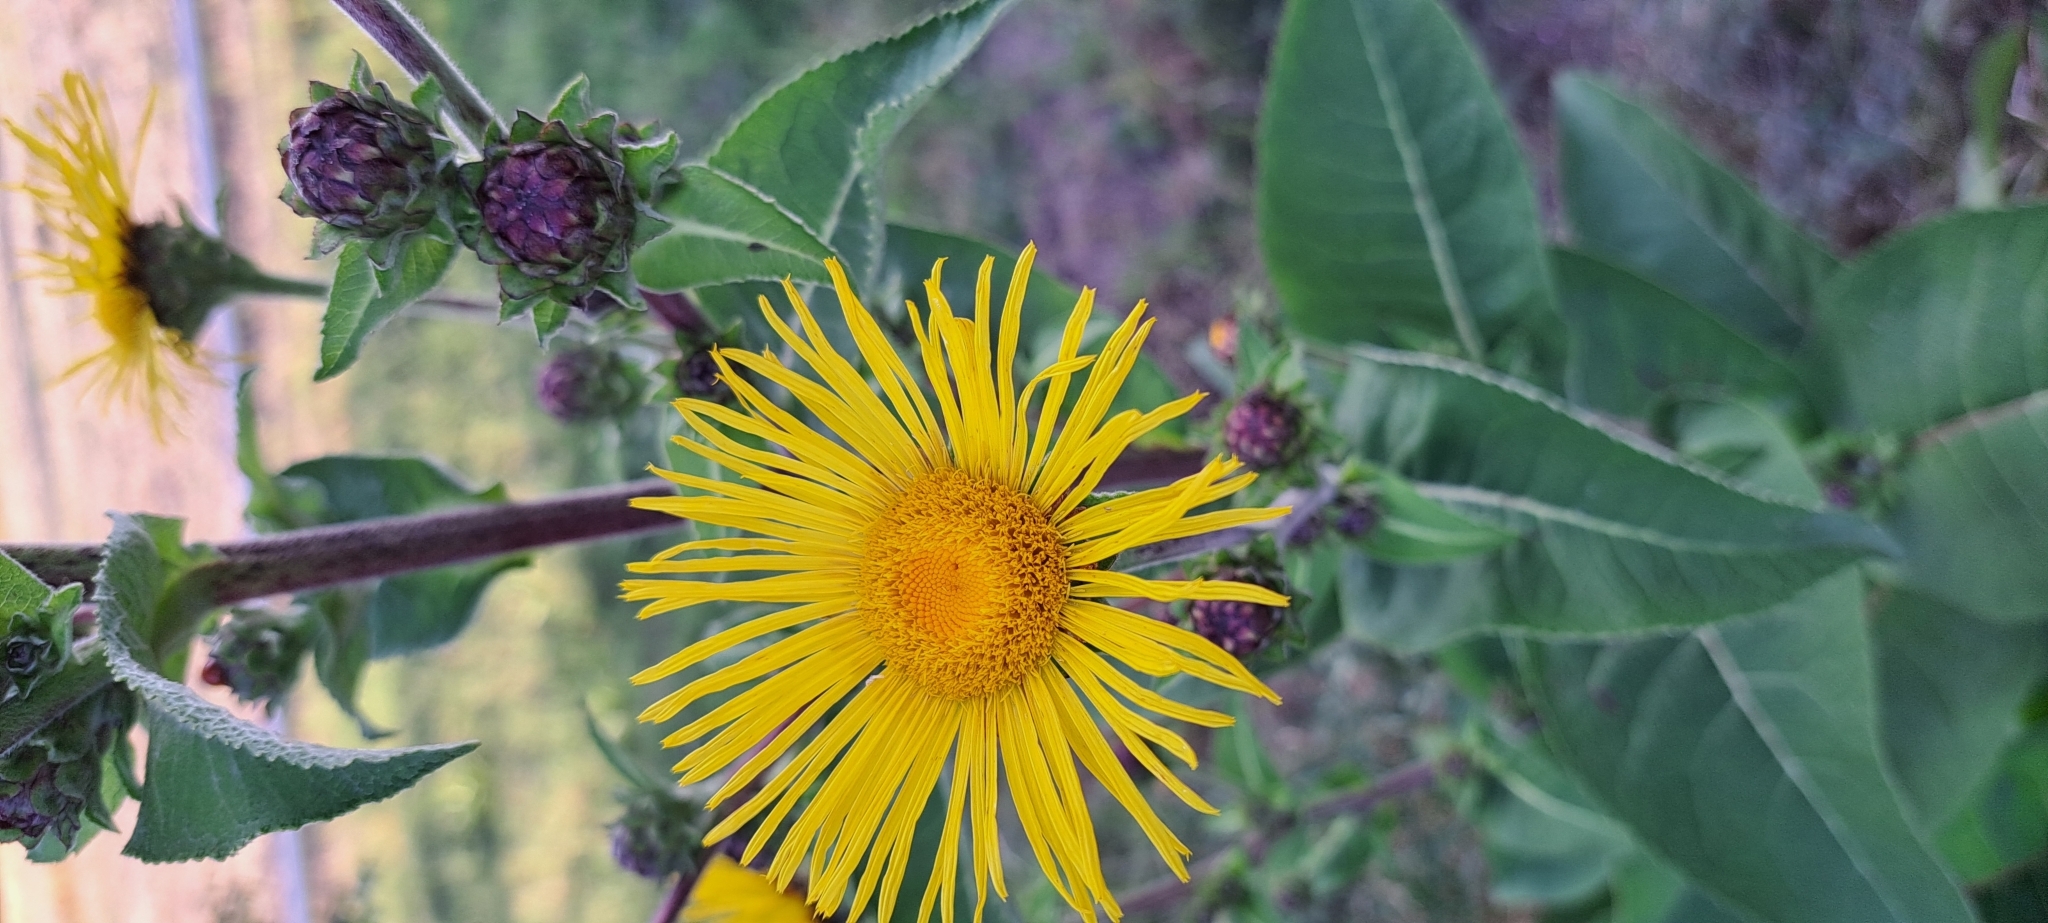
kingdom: Plantae
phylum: Tracheophyta
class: Magnoliopsida
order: Asterales
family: Asteraceae
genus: Inula
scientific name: Inula helenium
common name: Elecampane
